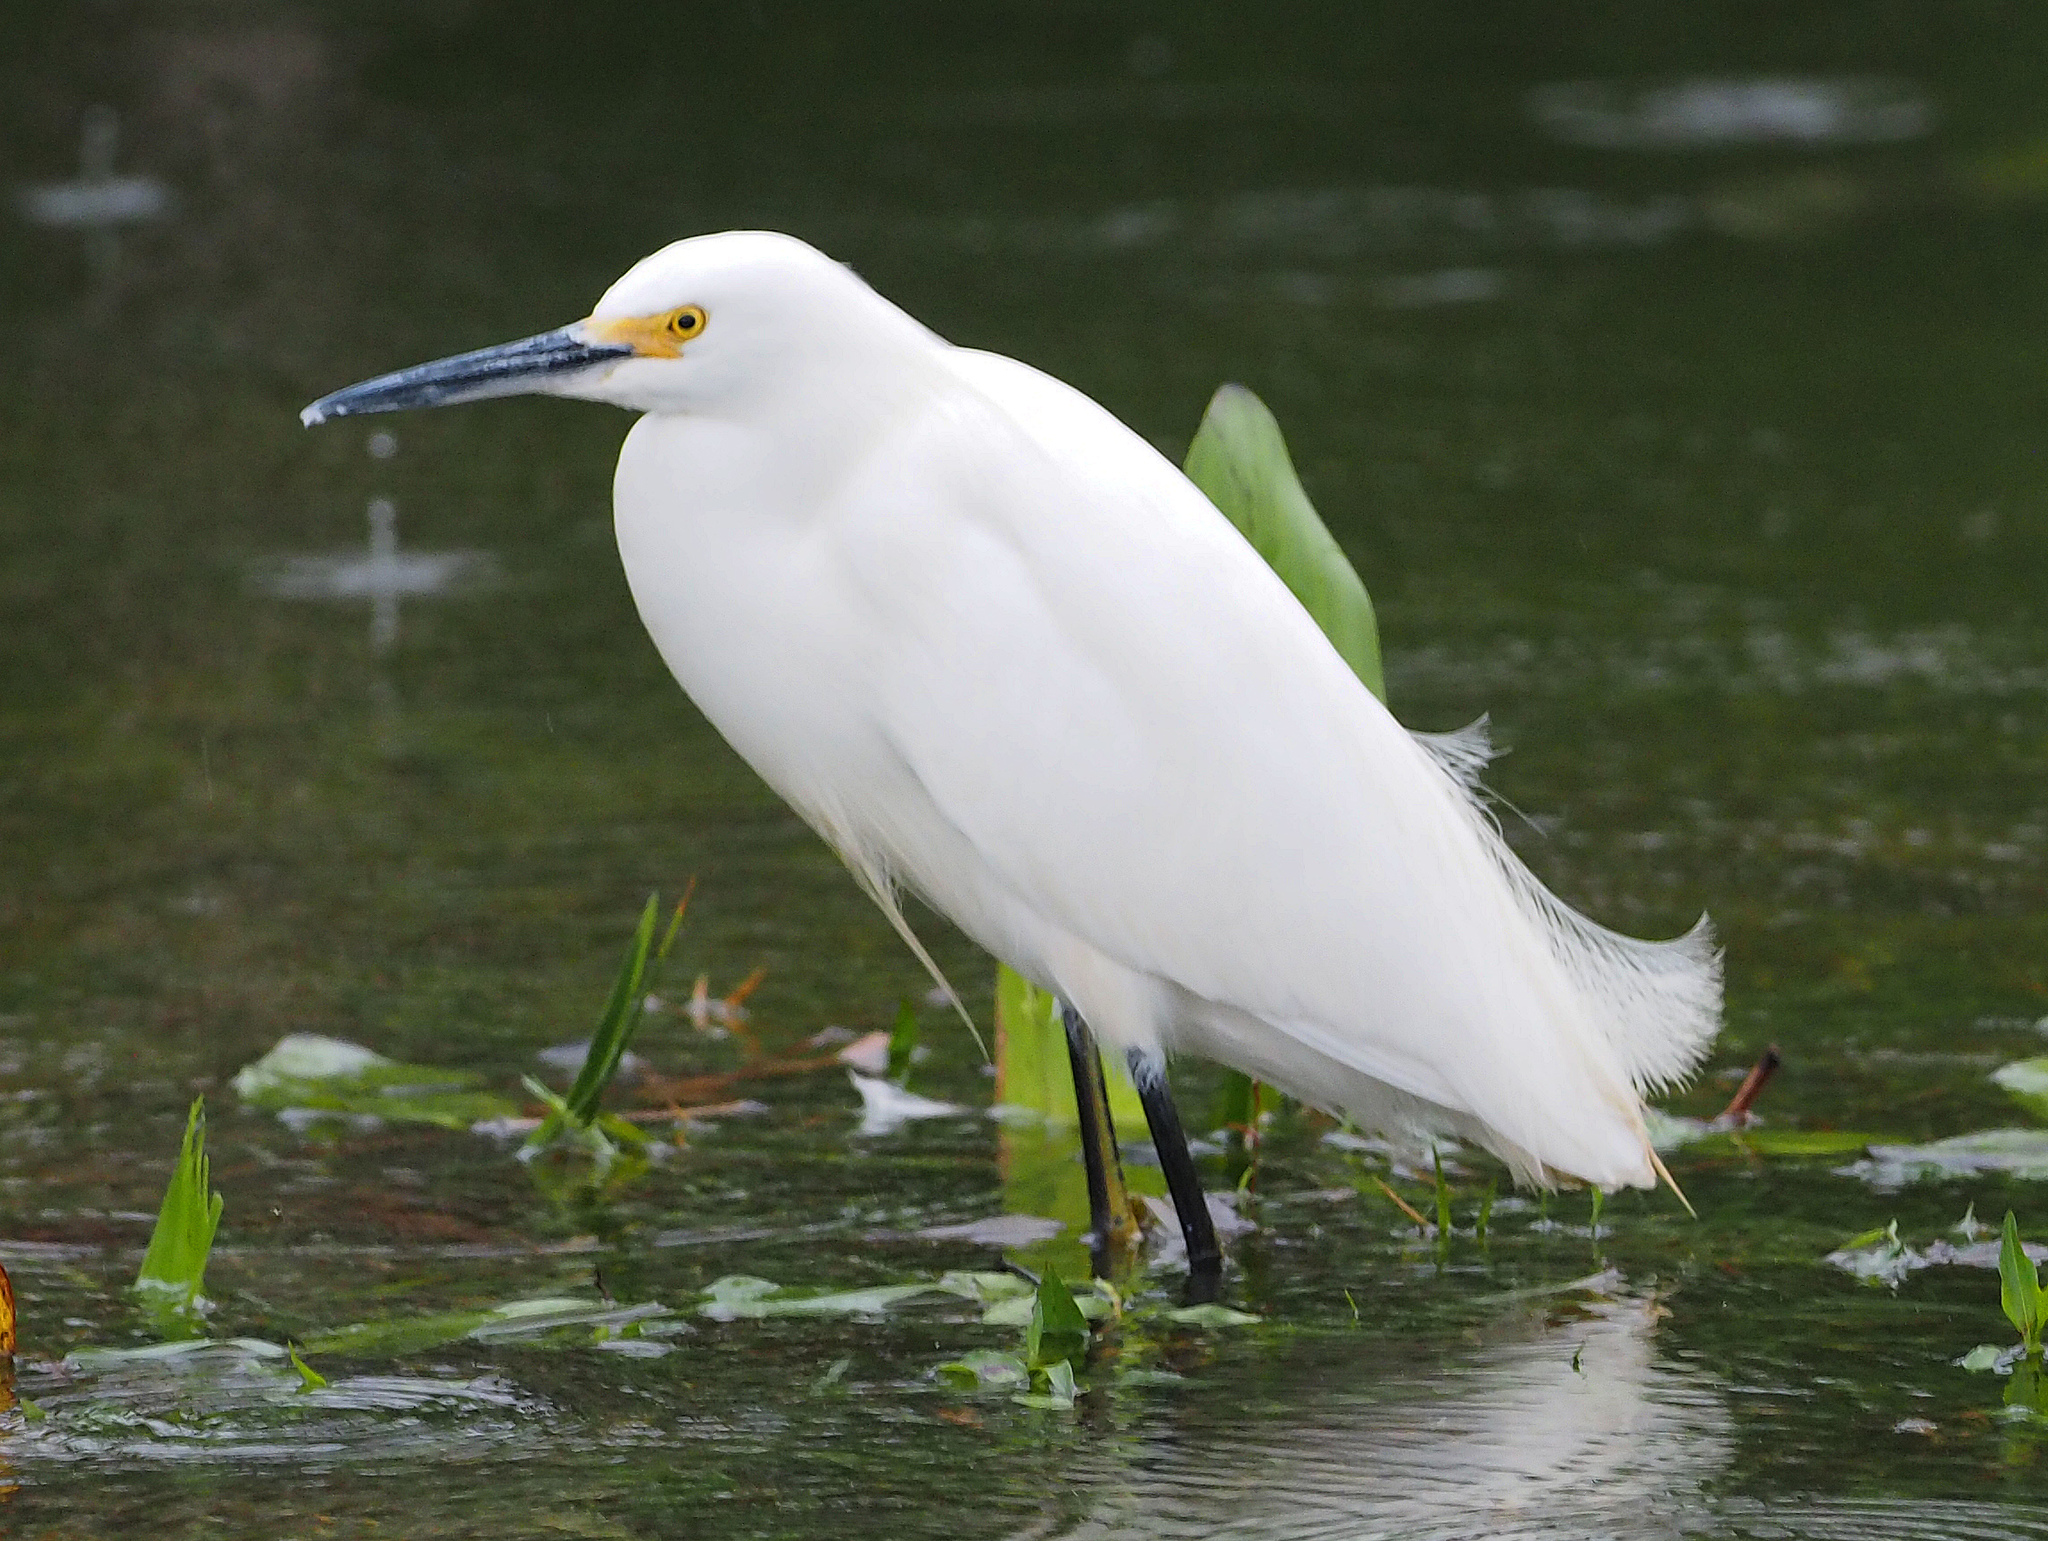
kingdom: Animalia
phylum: Chordata
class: Aves
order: Pelecaniformes
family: Ardeidae
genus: Egretta
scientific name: Egretta thula
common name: Snowy egret
